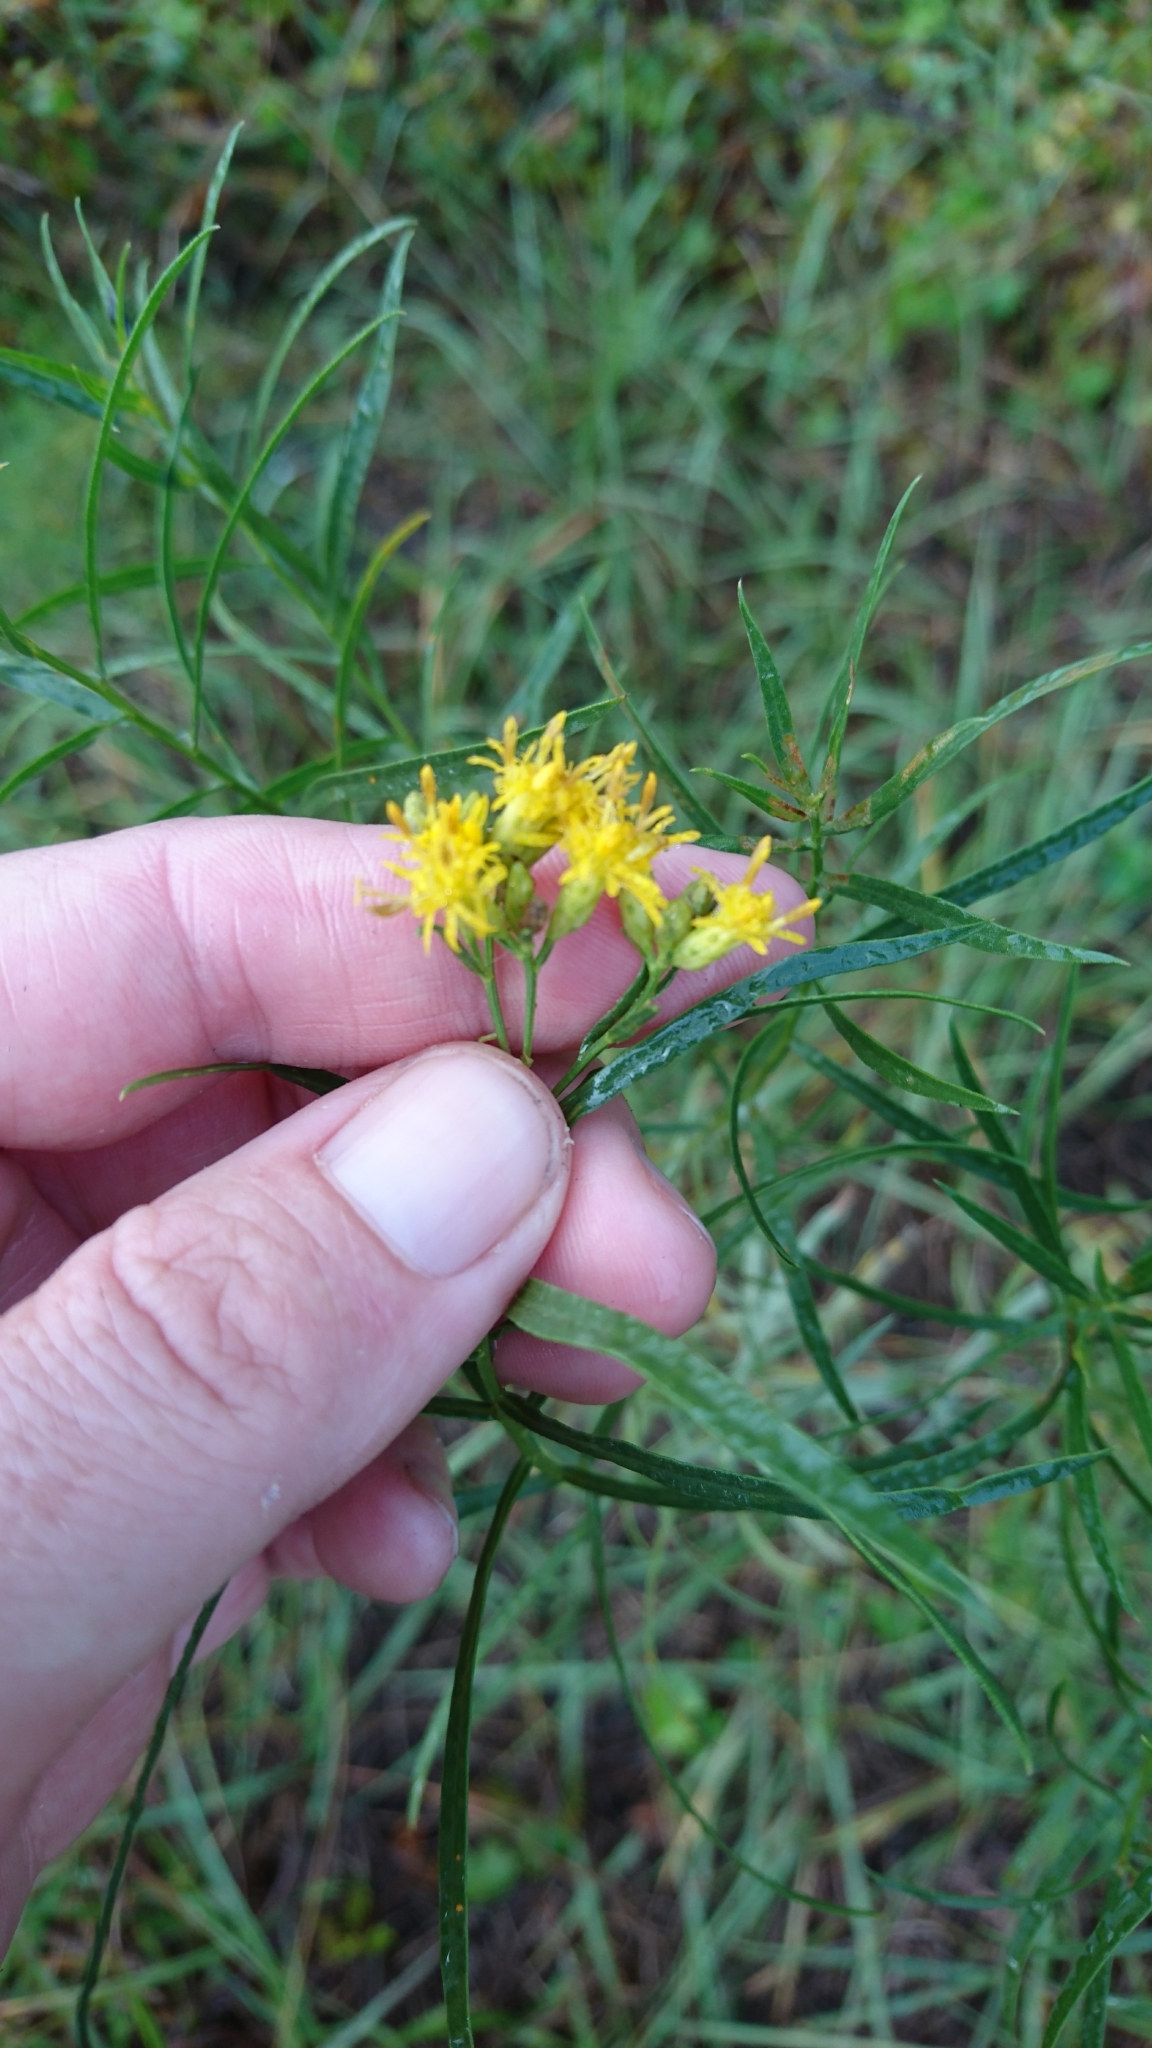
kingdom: Plantae
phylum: Tracheophyta
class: Magnoliopsida
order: Asterales
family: Asteraceae
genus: Euthamia
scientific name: Euthamia weakleyi
